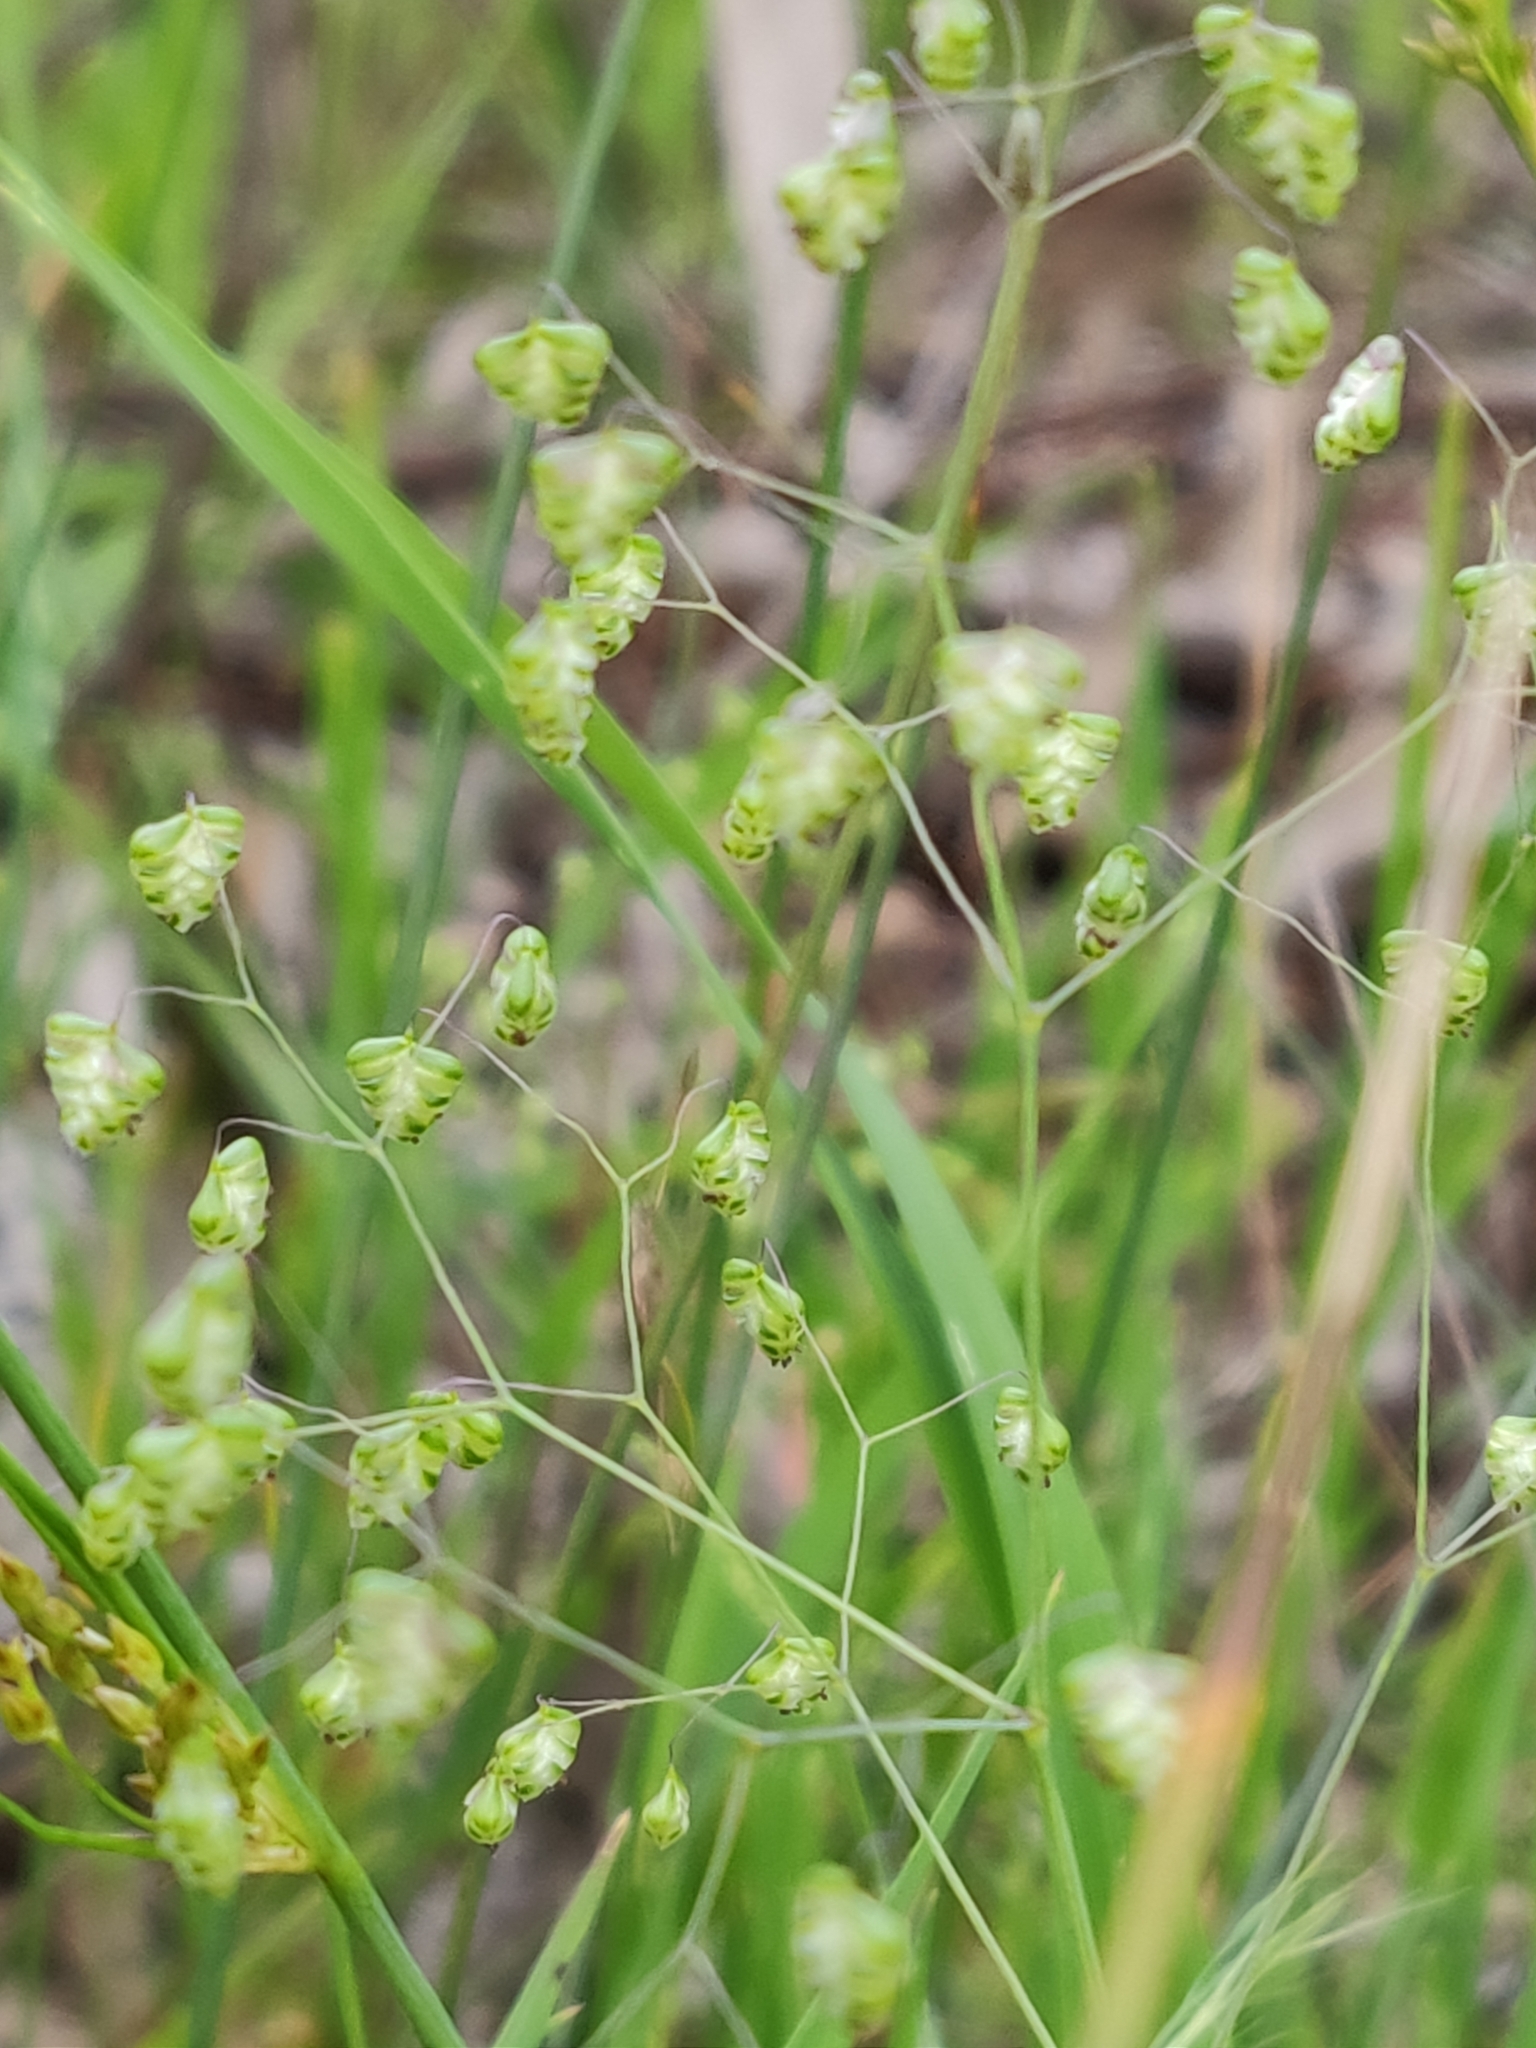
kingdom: Plantae
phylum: Tracheophyta
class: Liliopsida
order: Poales
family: Poaceae
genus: Briza
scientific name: Briza minor
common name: Lesser quaking-grass
